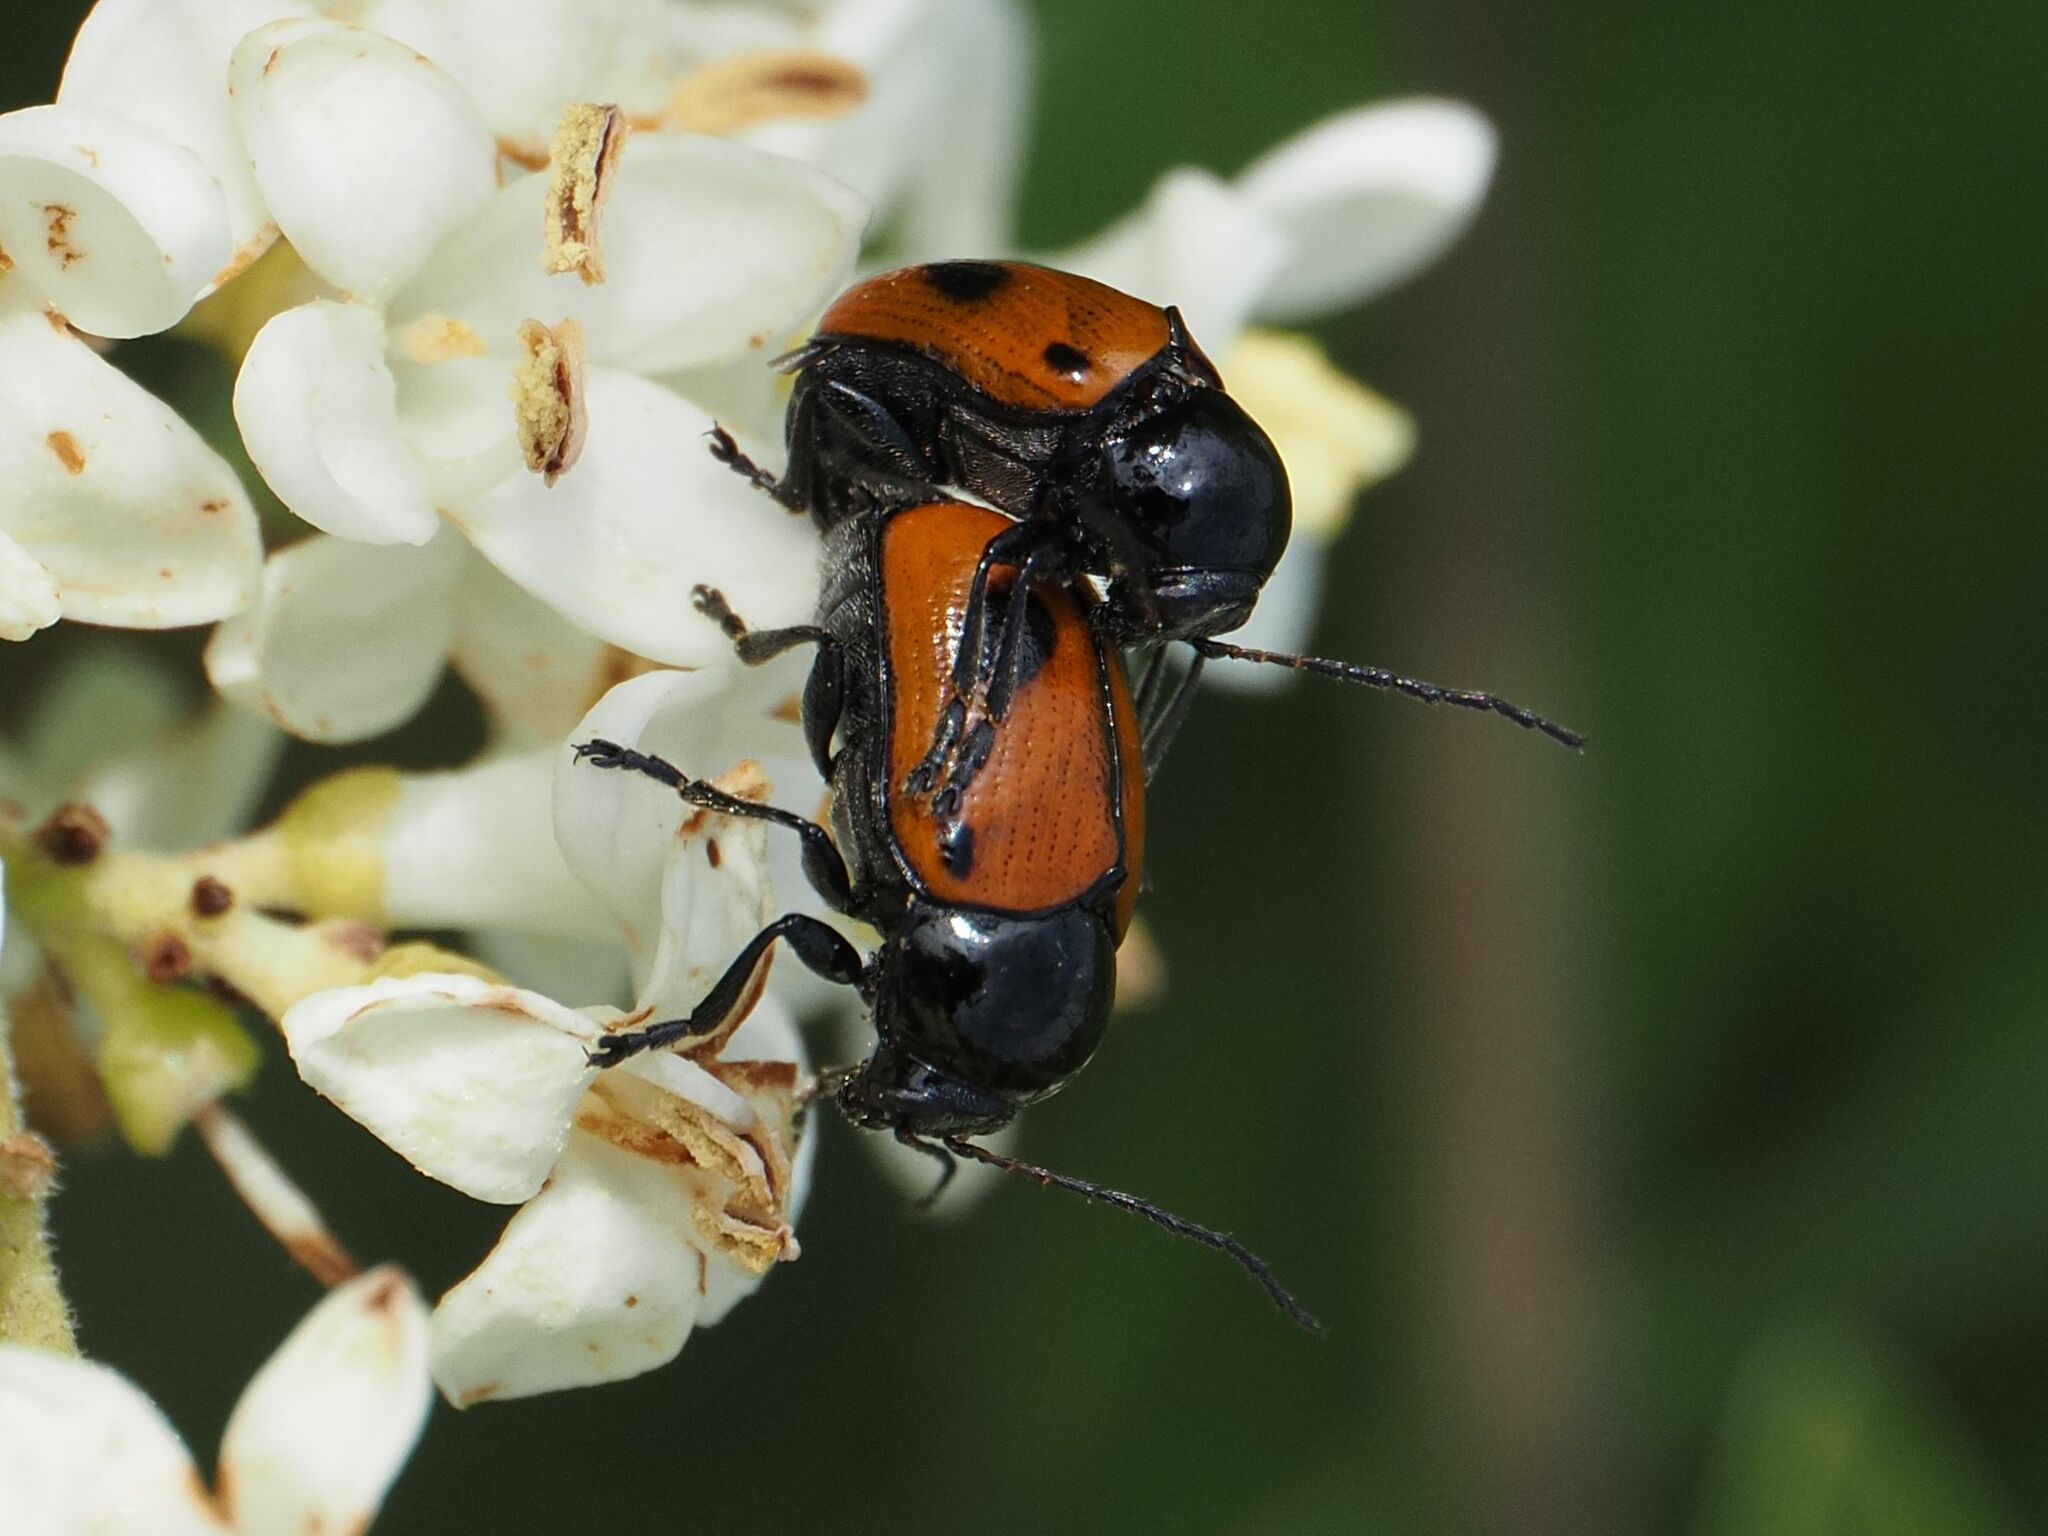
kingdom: Animalia
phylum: Arthropoda
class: Insecta
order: Coleoptera
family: Chrysomelidae
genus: Chiridopsis
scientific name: Chiridopsis bipunctata
